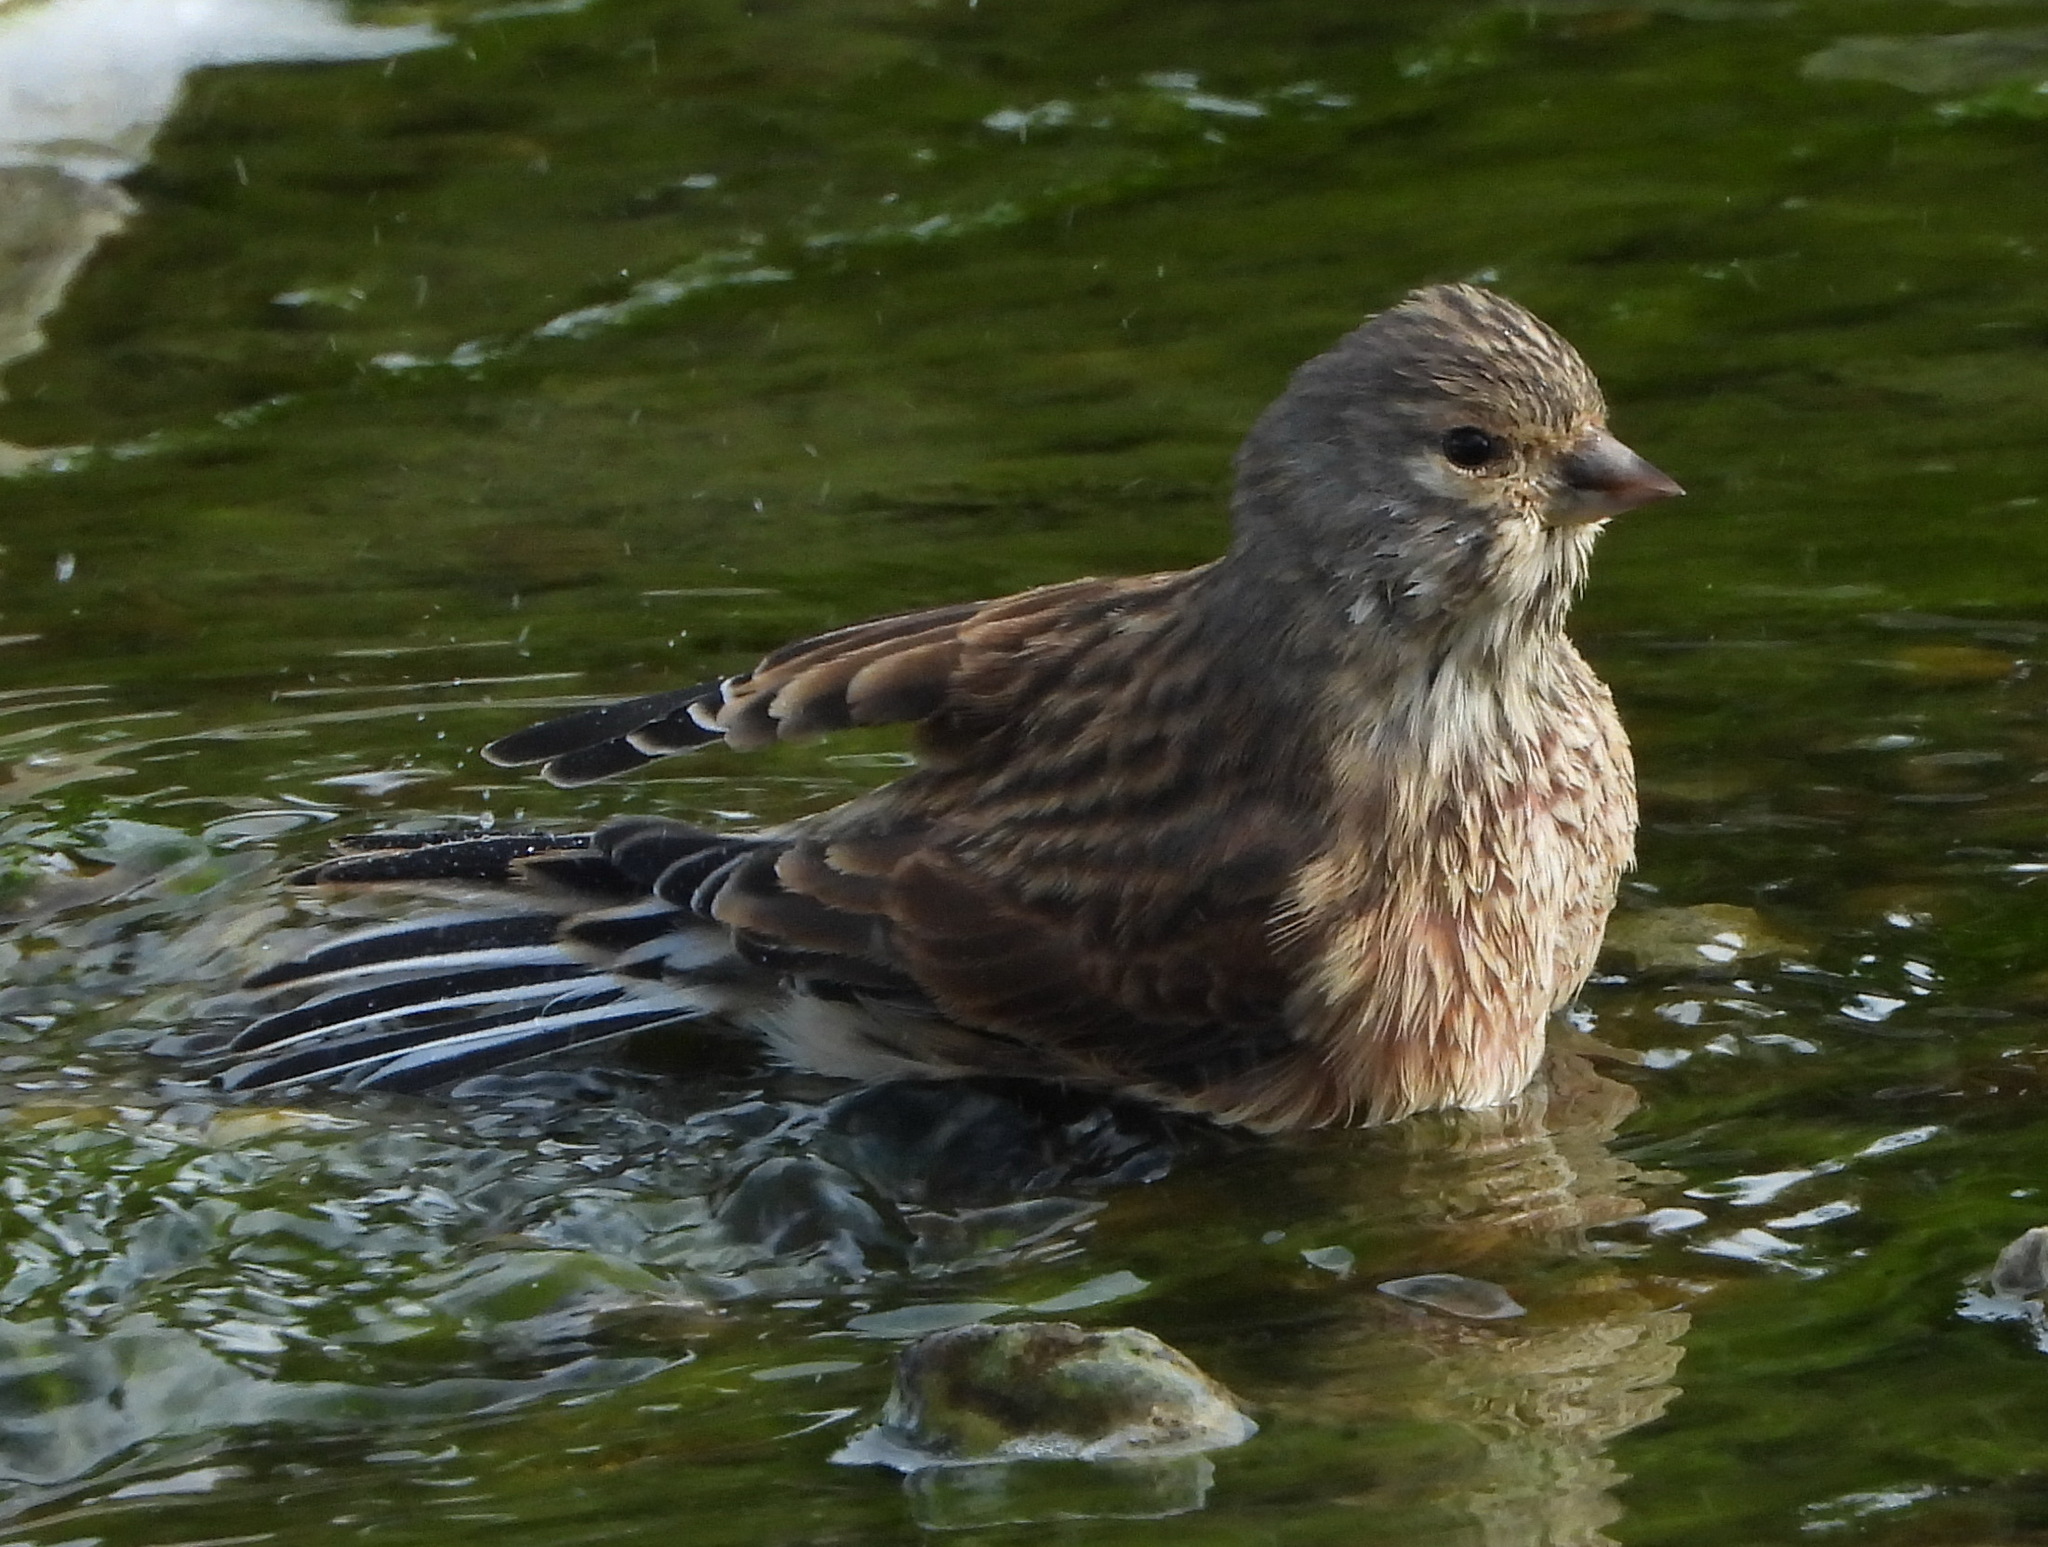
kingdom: Animalia
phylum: Chordata
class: Aves
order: Passeriformes
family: Fringillidae
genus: Linaria
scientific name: Linaria cannabina
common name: Common linnet
